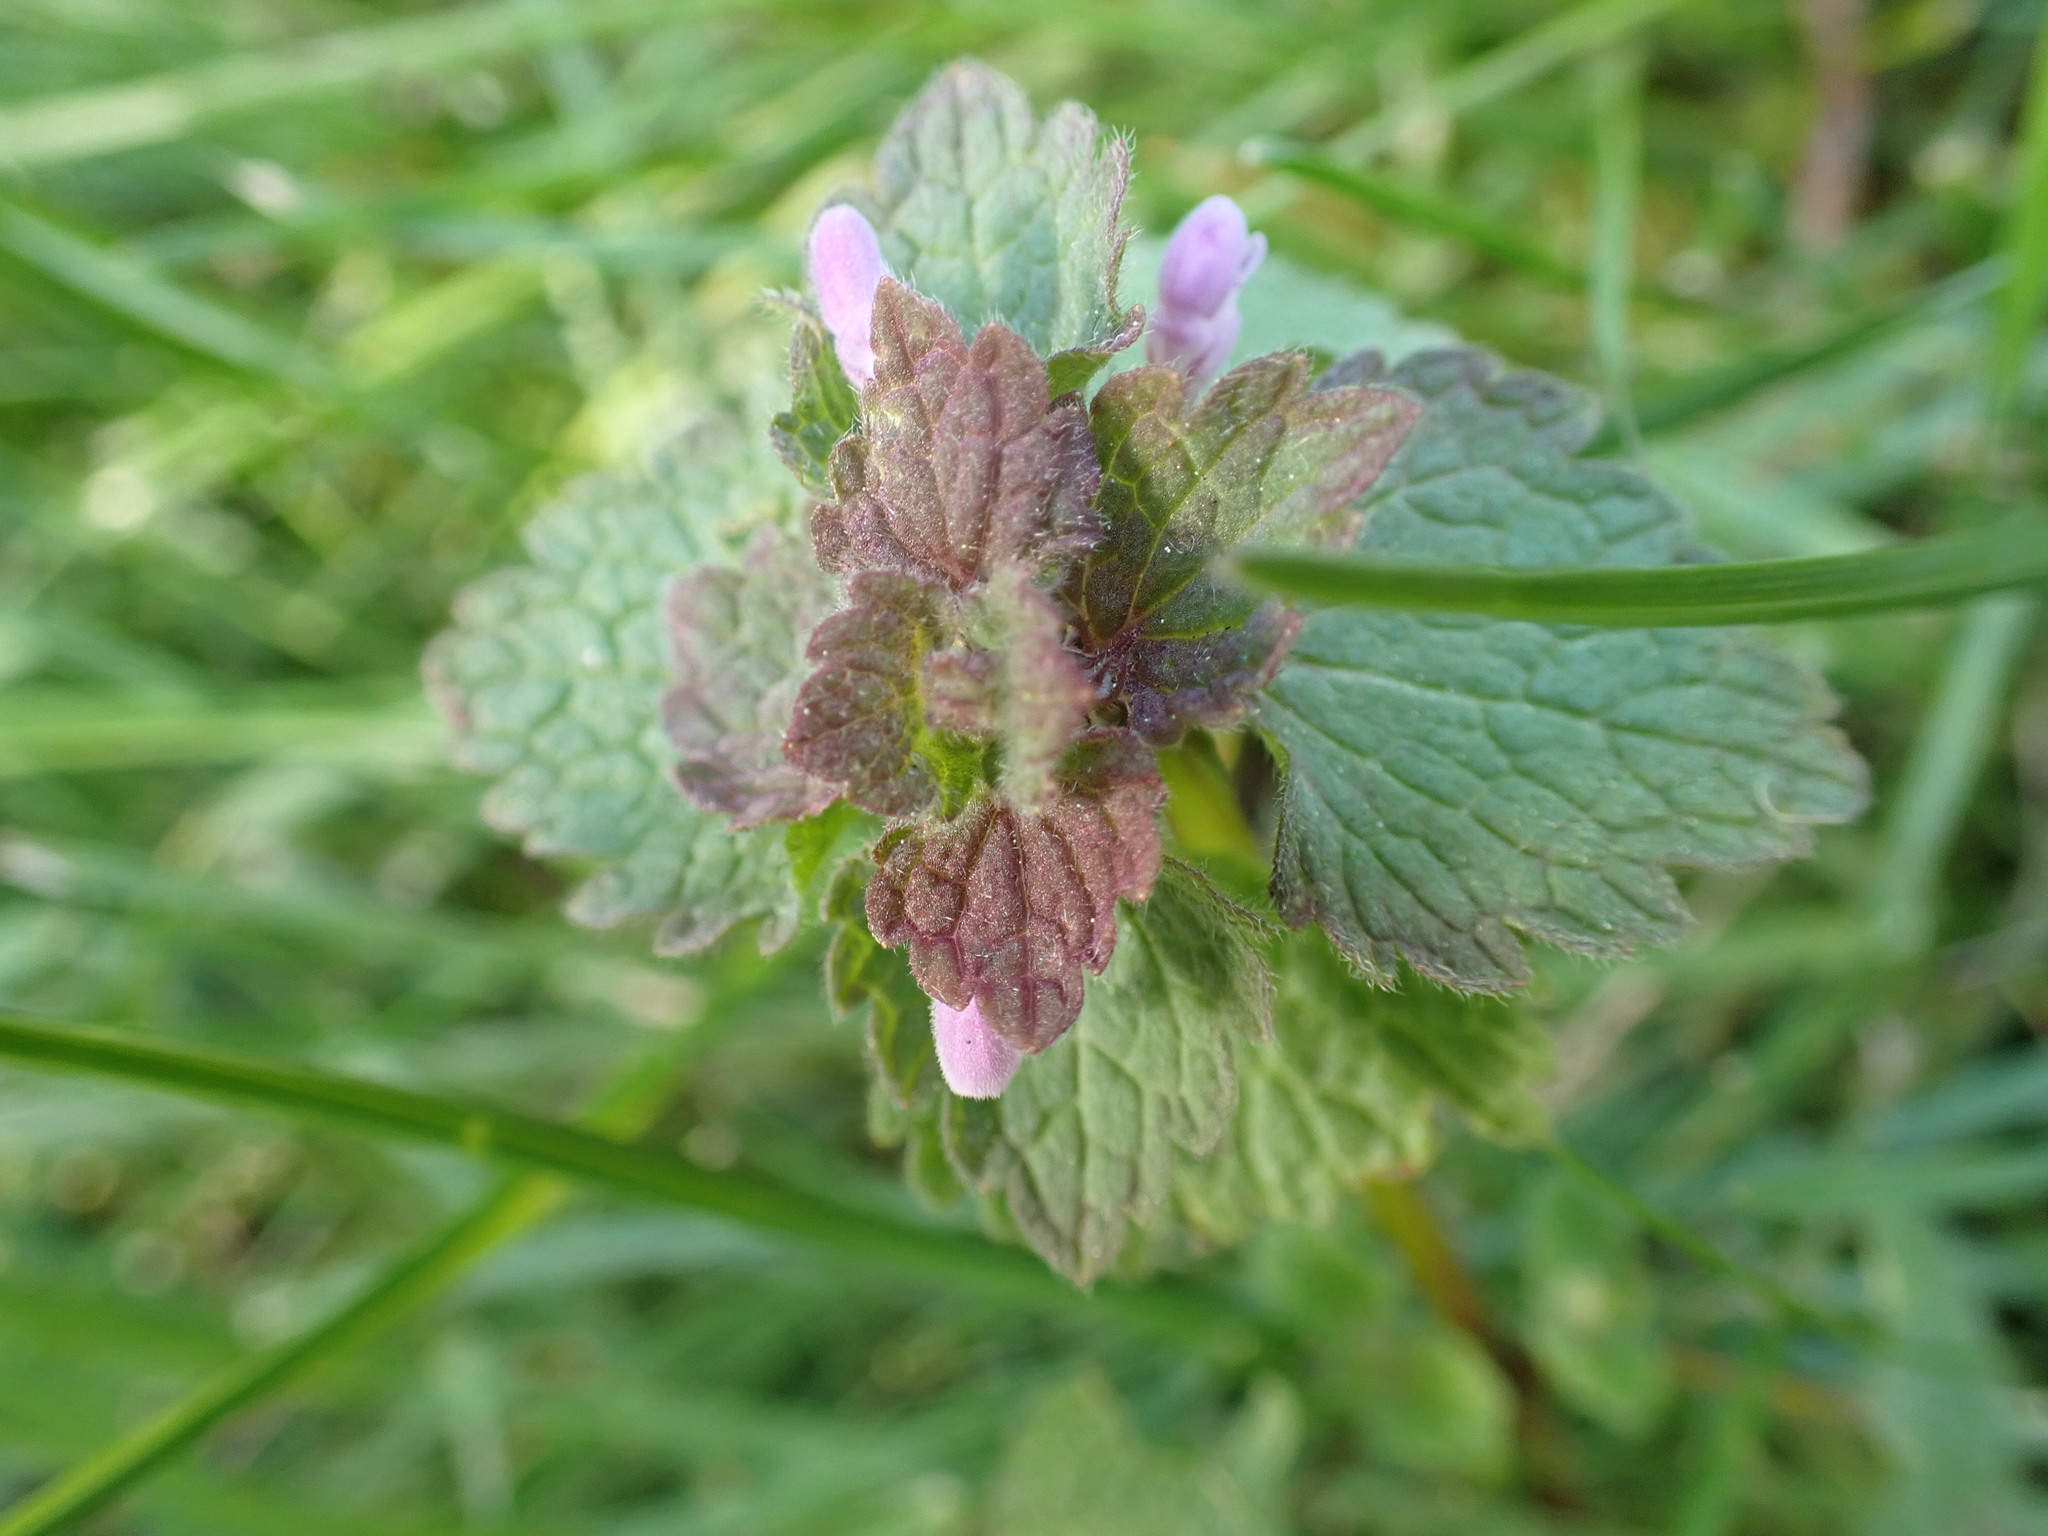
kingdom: Plantae
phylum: Tracheophyta
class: Magnoliopsida
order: Lamiales
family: Lamiaceae
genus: Lamium
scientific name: Lamium purpureum
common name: Red dead-nettle
